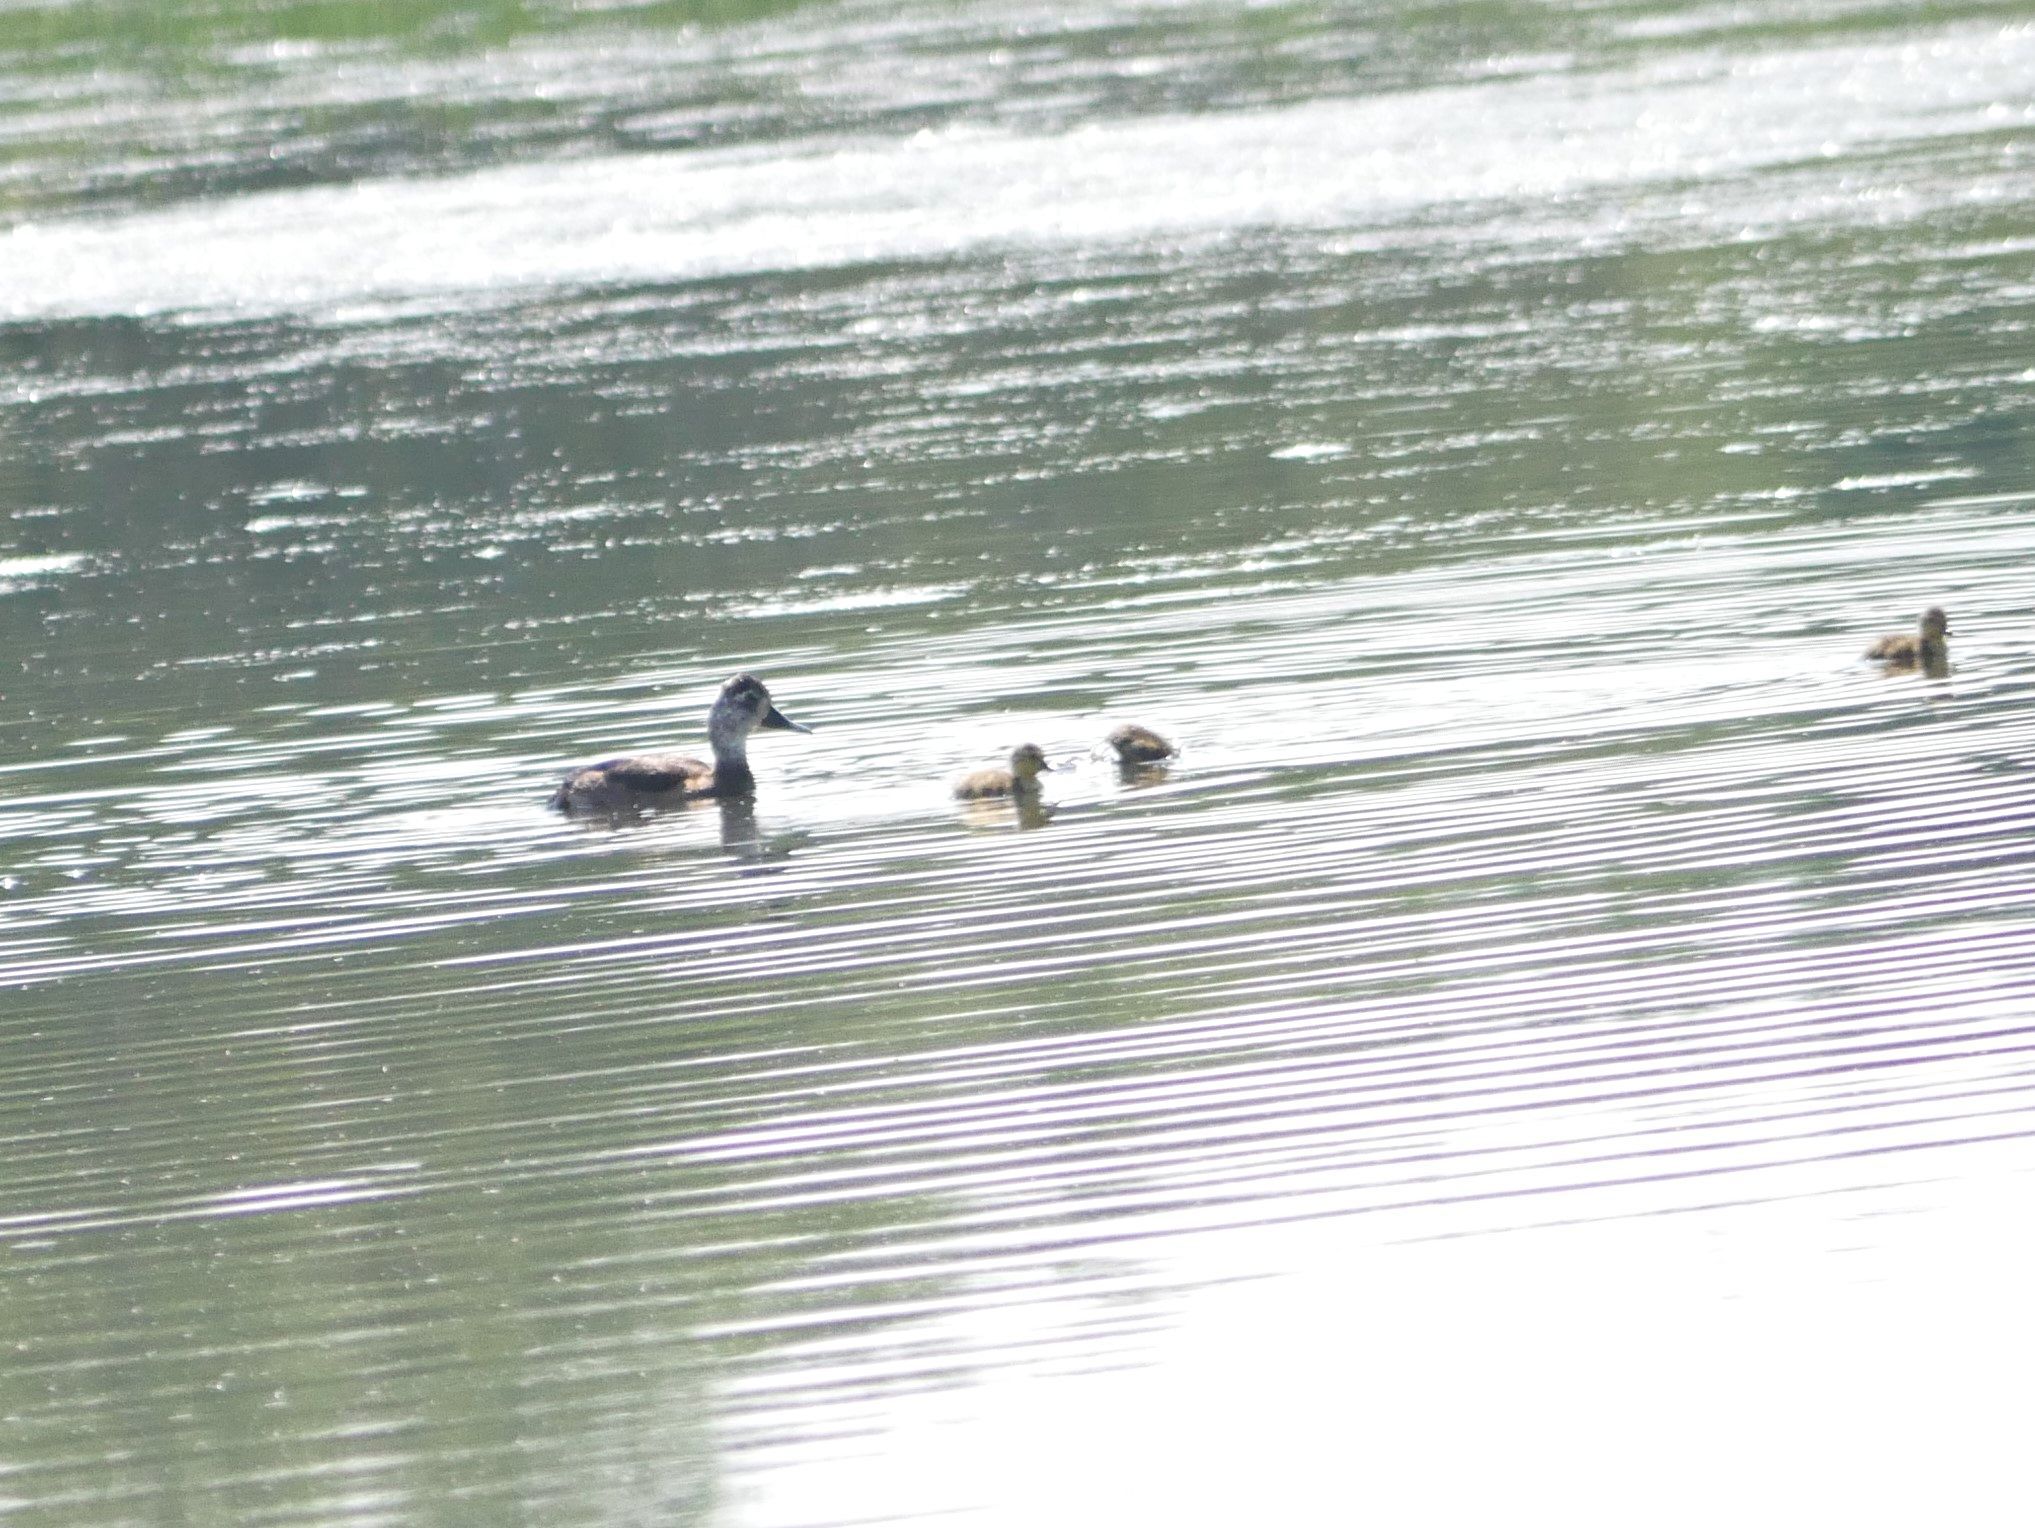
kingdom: Animalia
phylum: Chordata
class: Aves
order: Anseriformes
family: Anatidae
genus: Aythya
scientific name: Aythya collaris
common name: Ring-necked duck
